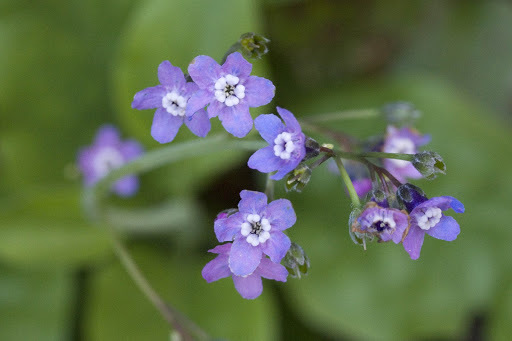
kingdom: Plantae
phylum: Tracheophyta
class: Magnoliopsida
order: Boraginales
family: Boraginaceae
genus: Adelinia
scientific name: Adelinia grande
